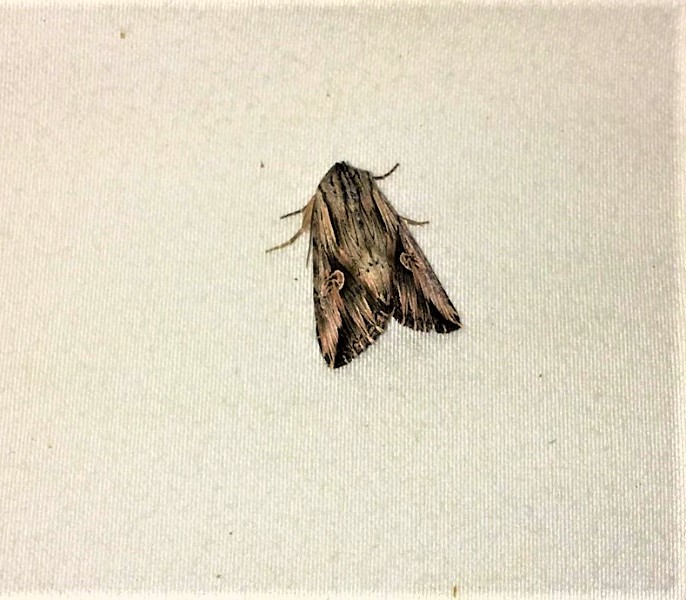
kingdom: Animalia
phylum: Arthropoda
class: Insecta
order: Lepidoptera
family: Noctuidae
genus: Nedra
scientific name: Nedra ramosula
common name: Gray half-spot
